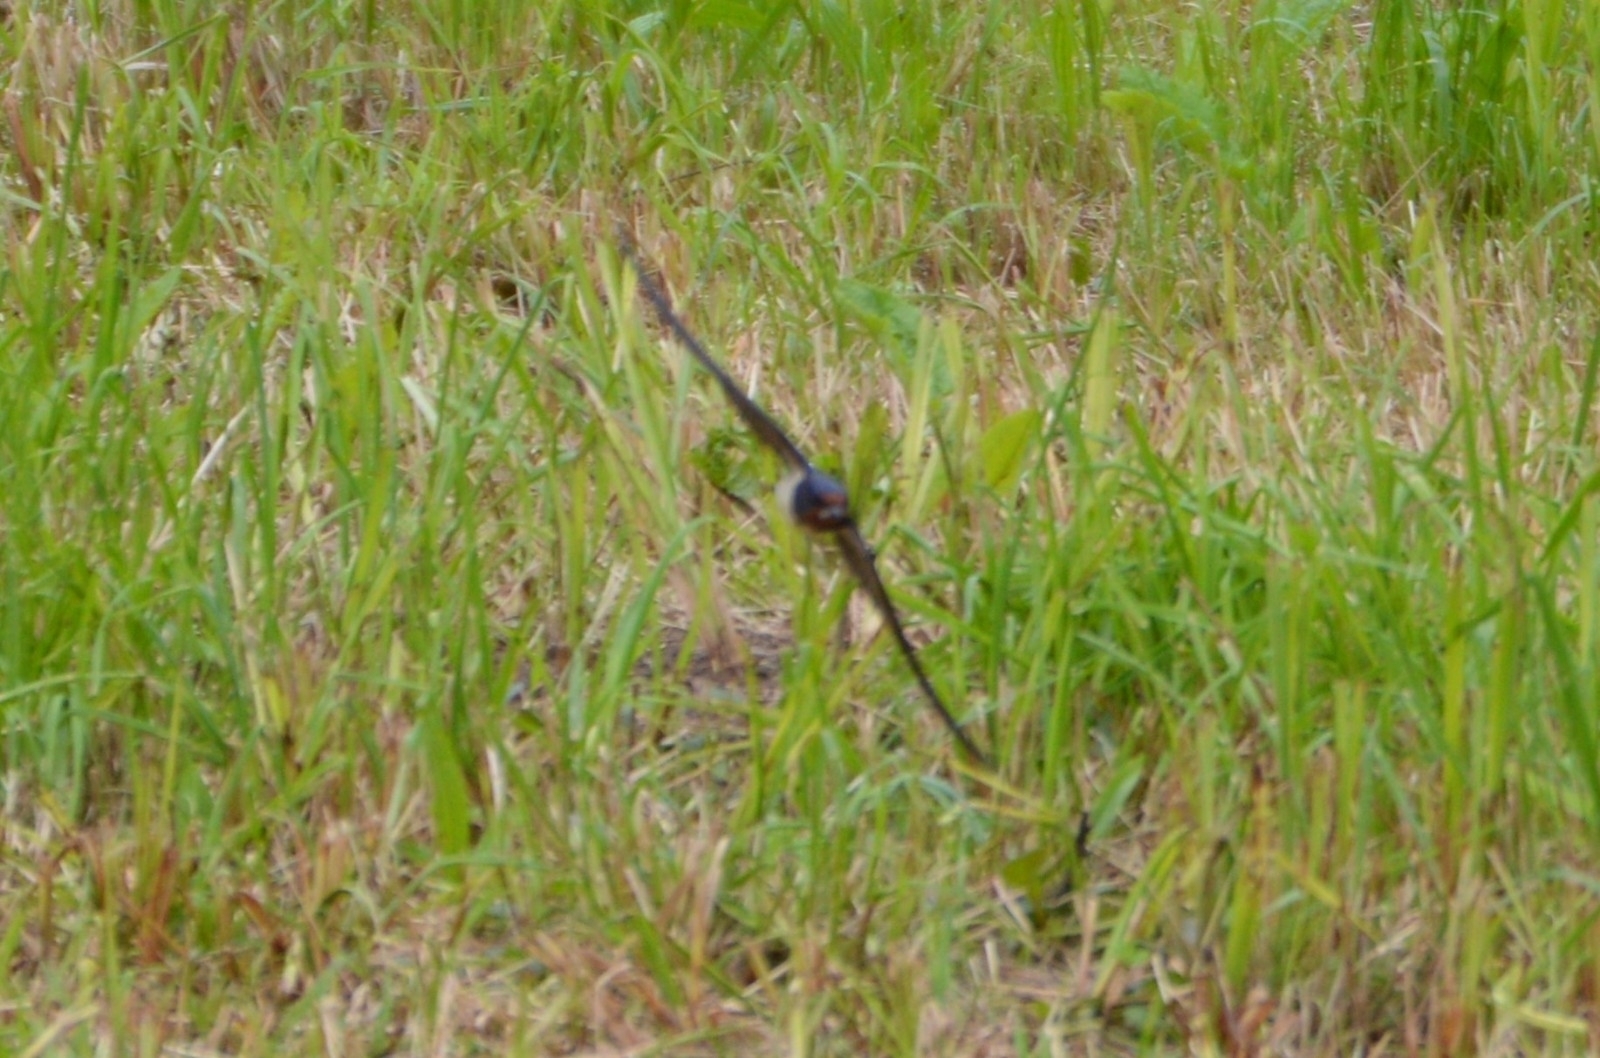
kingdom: Animalia
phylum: Chordata
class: Aves
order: Passeriformes
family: Hirundinidae
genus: Hirundo
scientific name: Hirundo rustica
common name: Barn swallow
